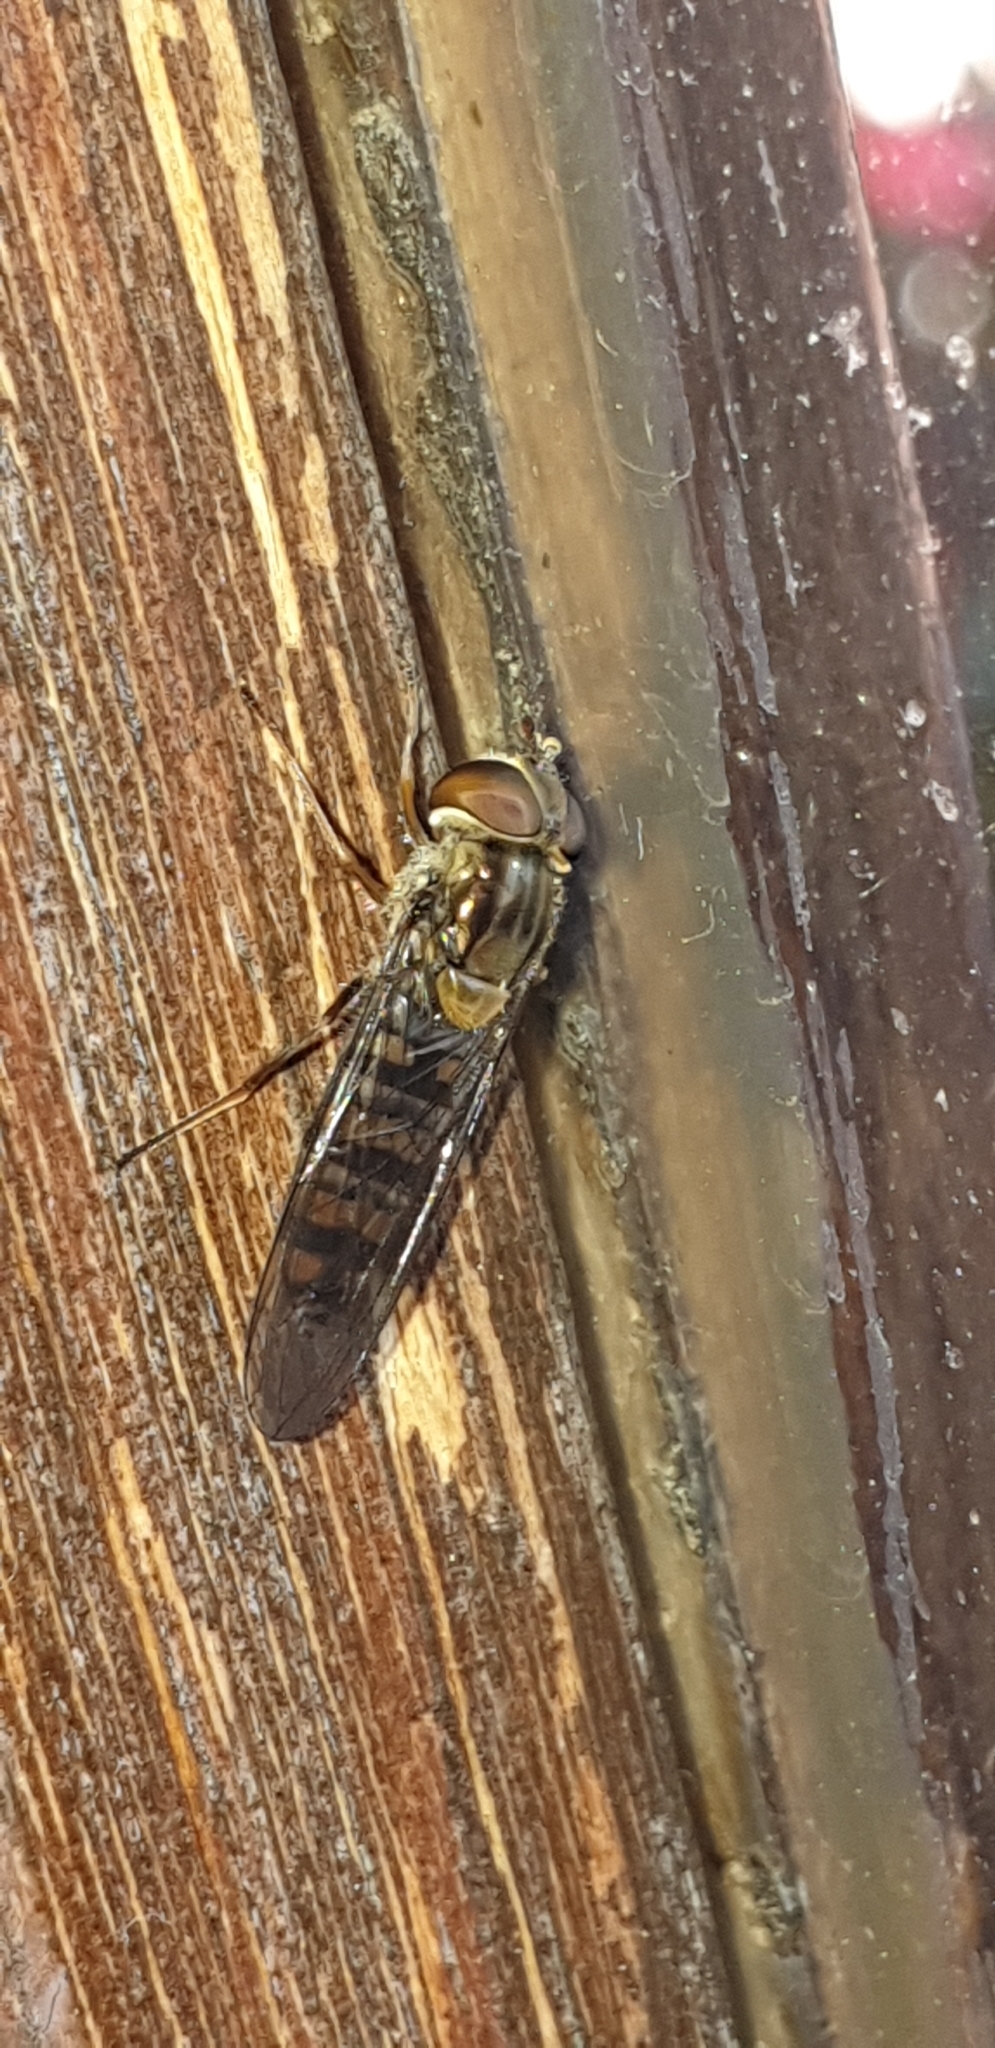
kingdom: Animalia
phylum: Arthropoda
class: Insecta
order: Diptera
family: Syrphidae
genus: Episyrphus
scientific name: Episyrphus balteatus
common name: Marmalade hoverfly
